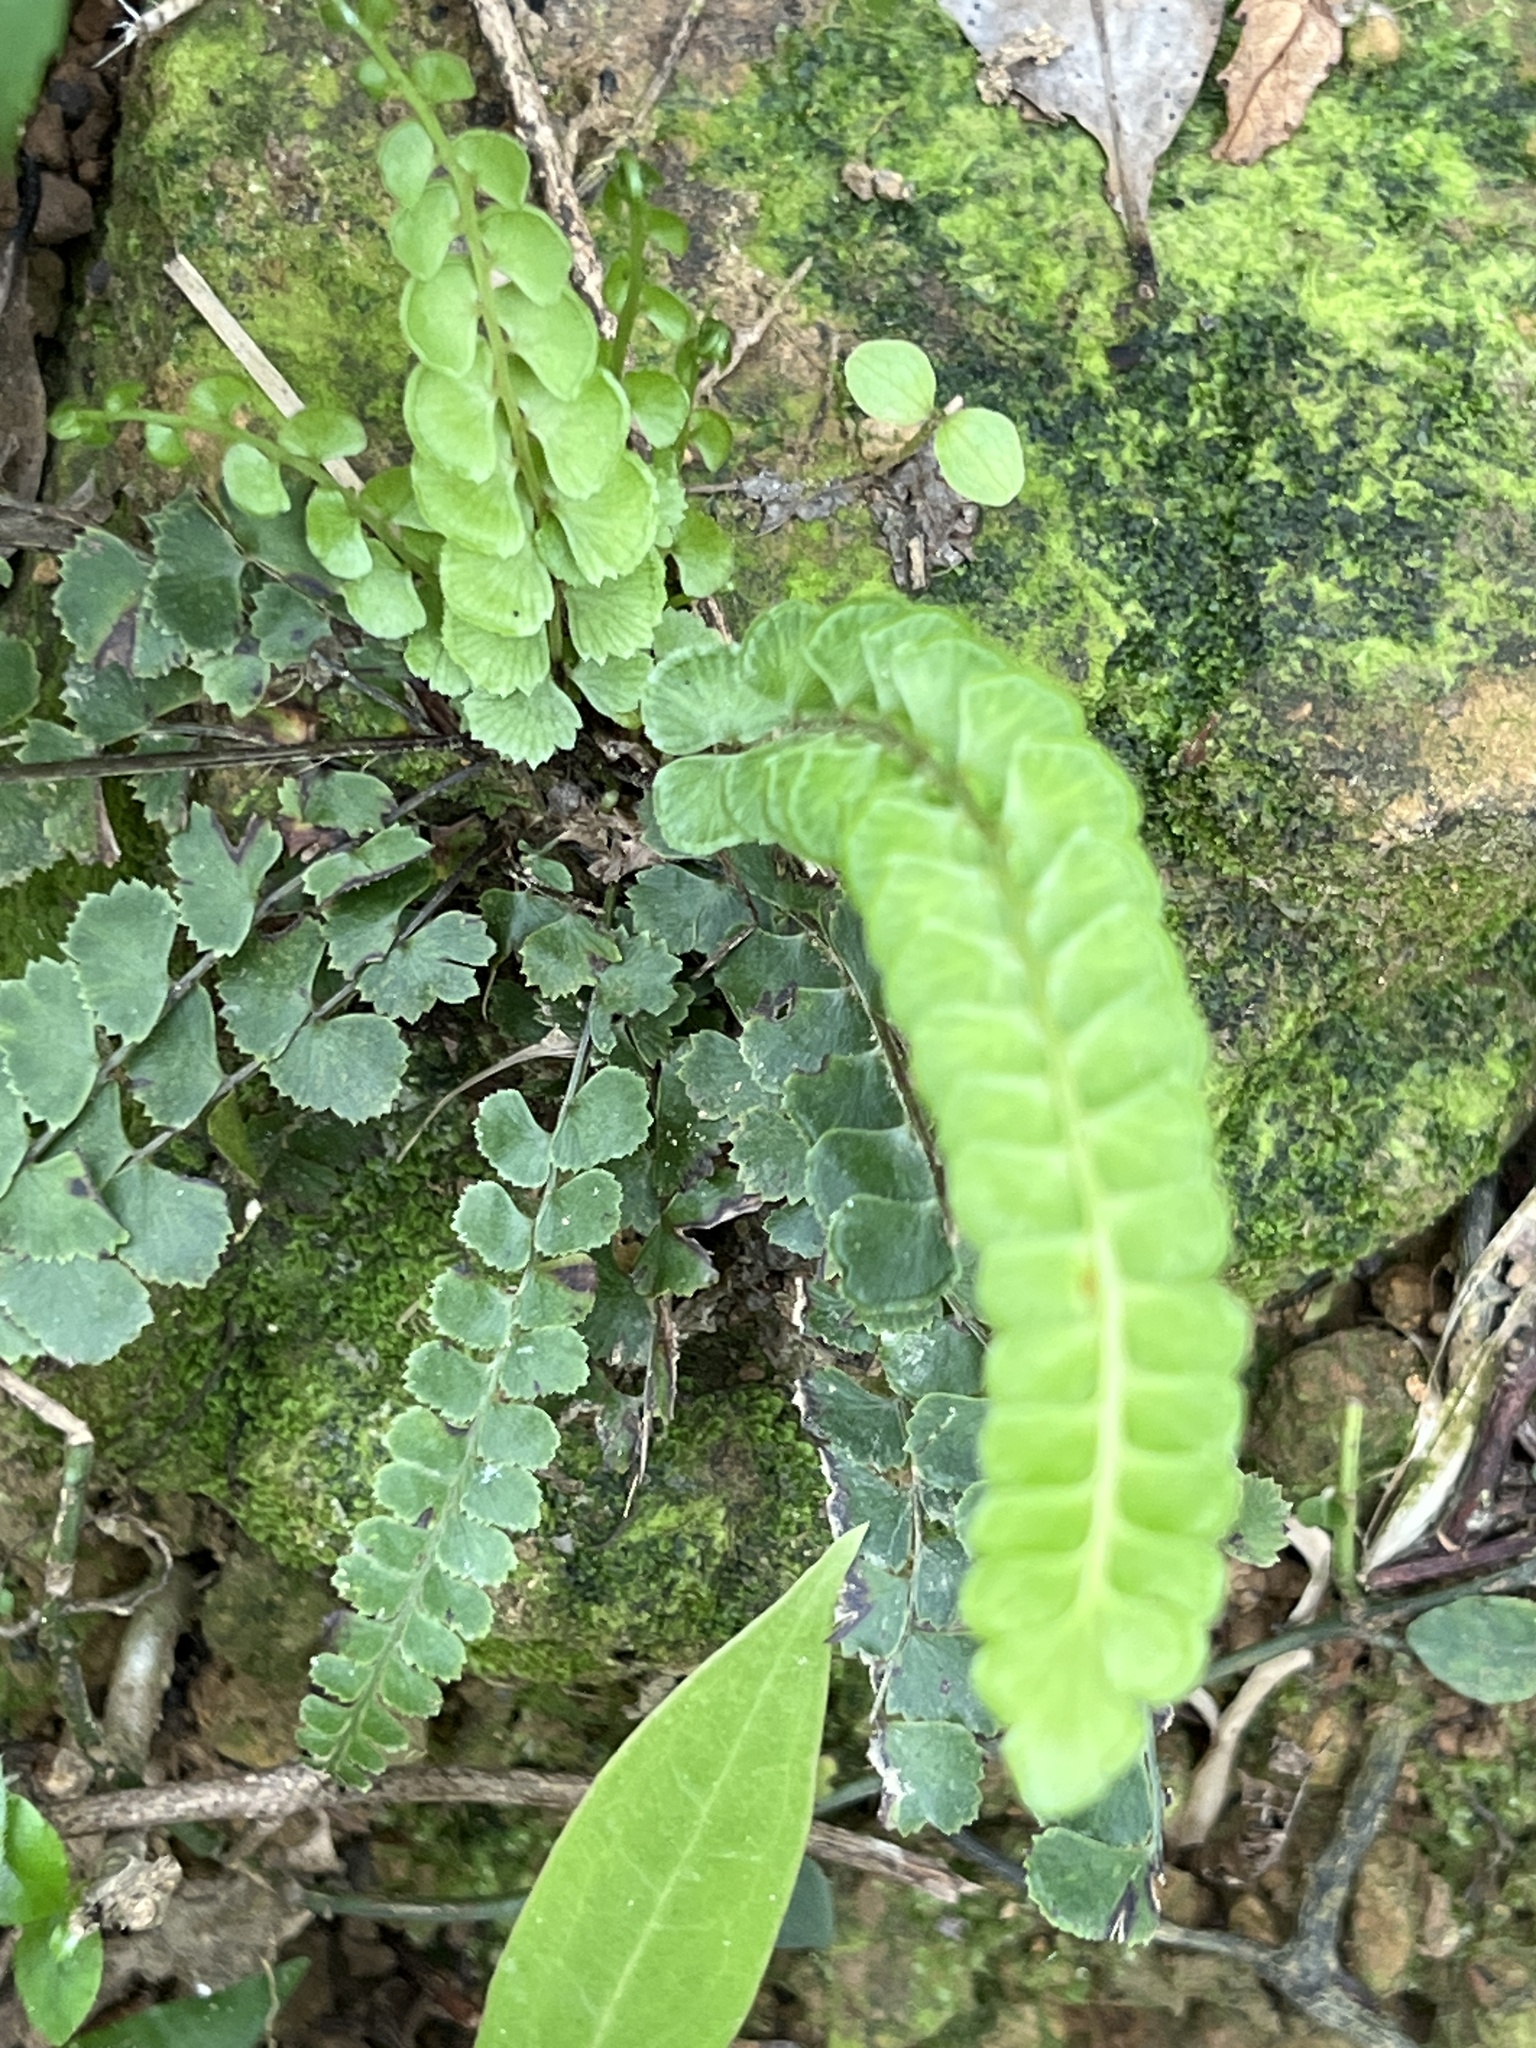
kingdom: Plantae
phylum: Tracheophyta
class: Polypodiopsida
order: Polypodiales
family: Lindsaeaceae
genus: Lindsaea
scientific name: Lindsaea orbiculata
